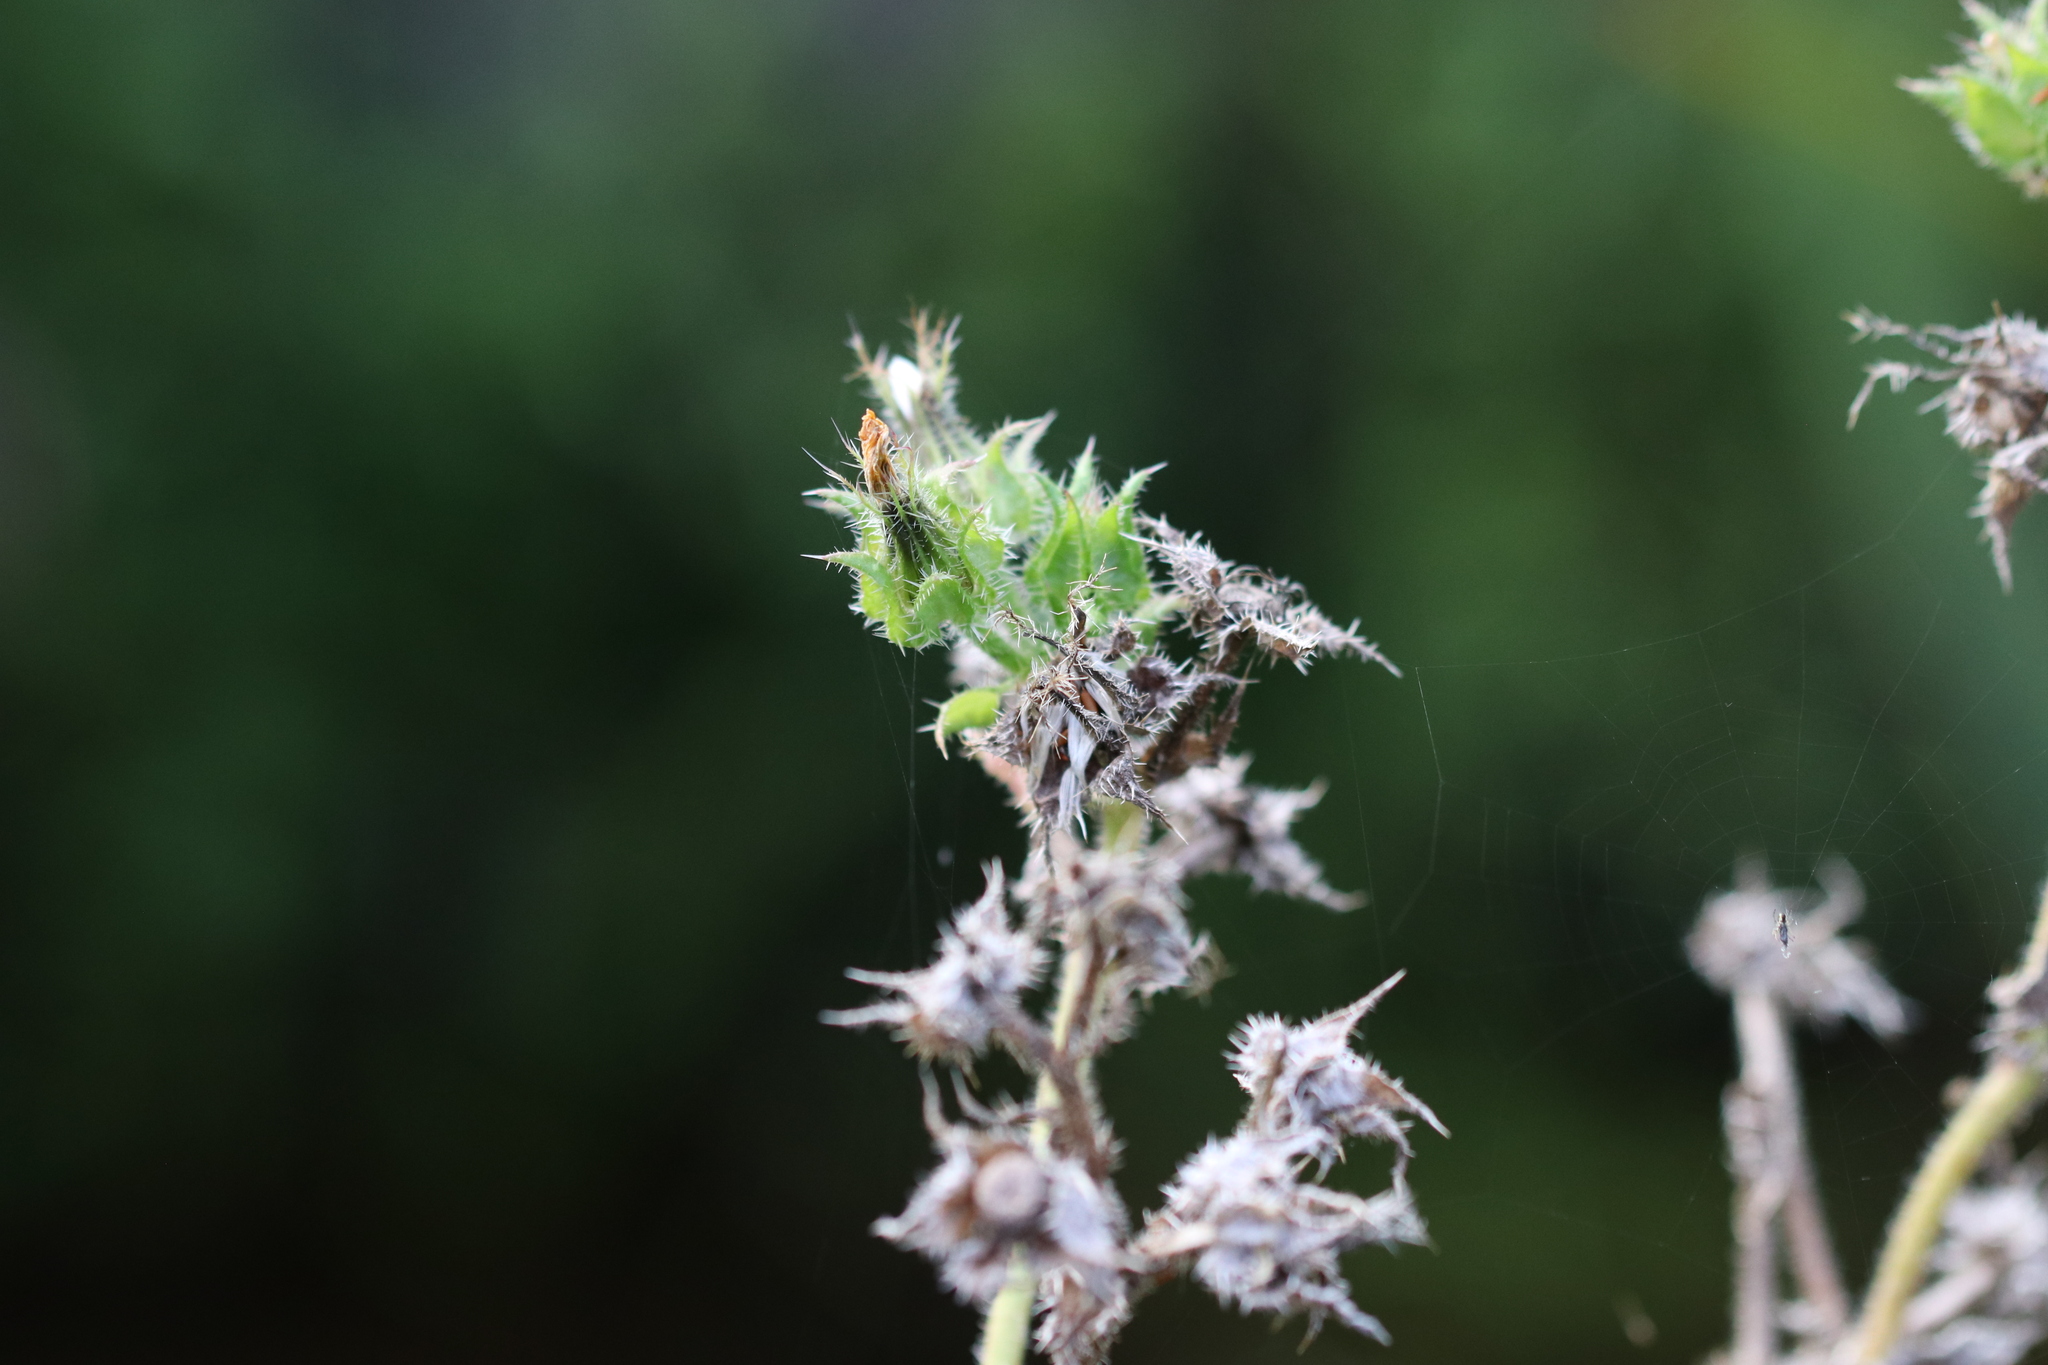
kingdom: Plantae
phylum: Tracheophyta
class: Magnoliopsida
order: Asterales
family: Asteraceae
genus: Helminthotheca
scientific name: Helminthotheca echioides
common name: Ox-tongue
